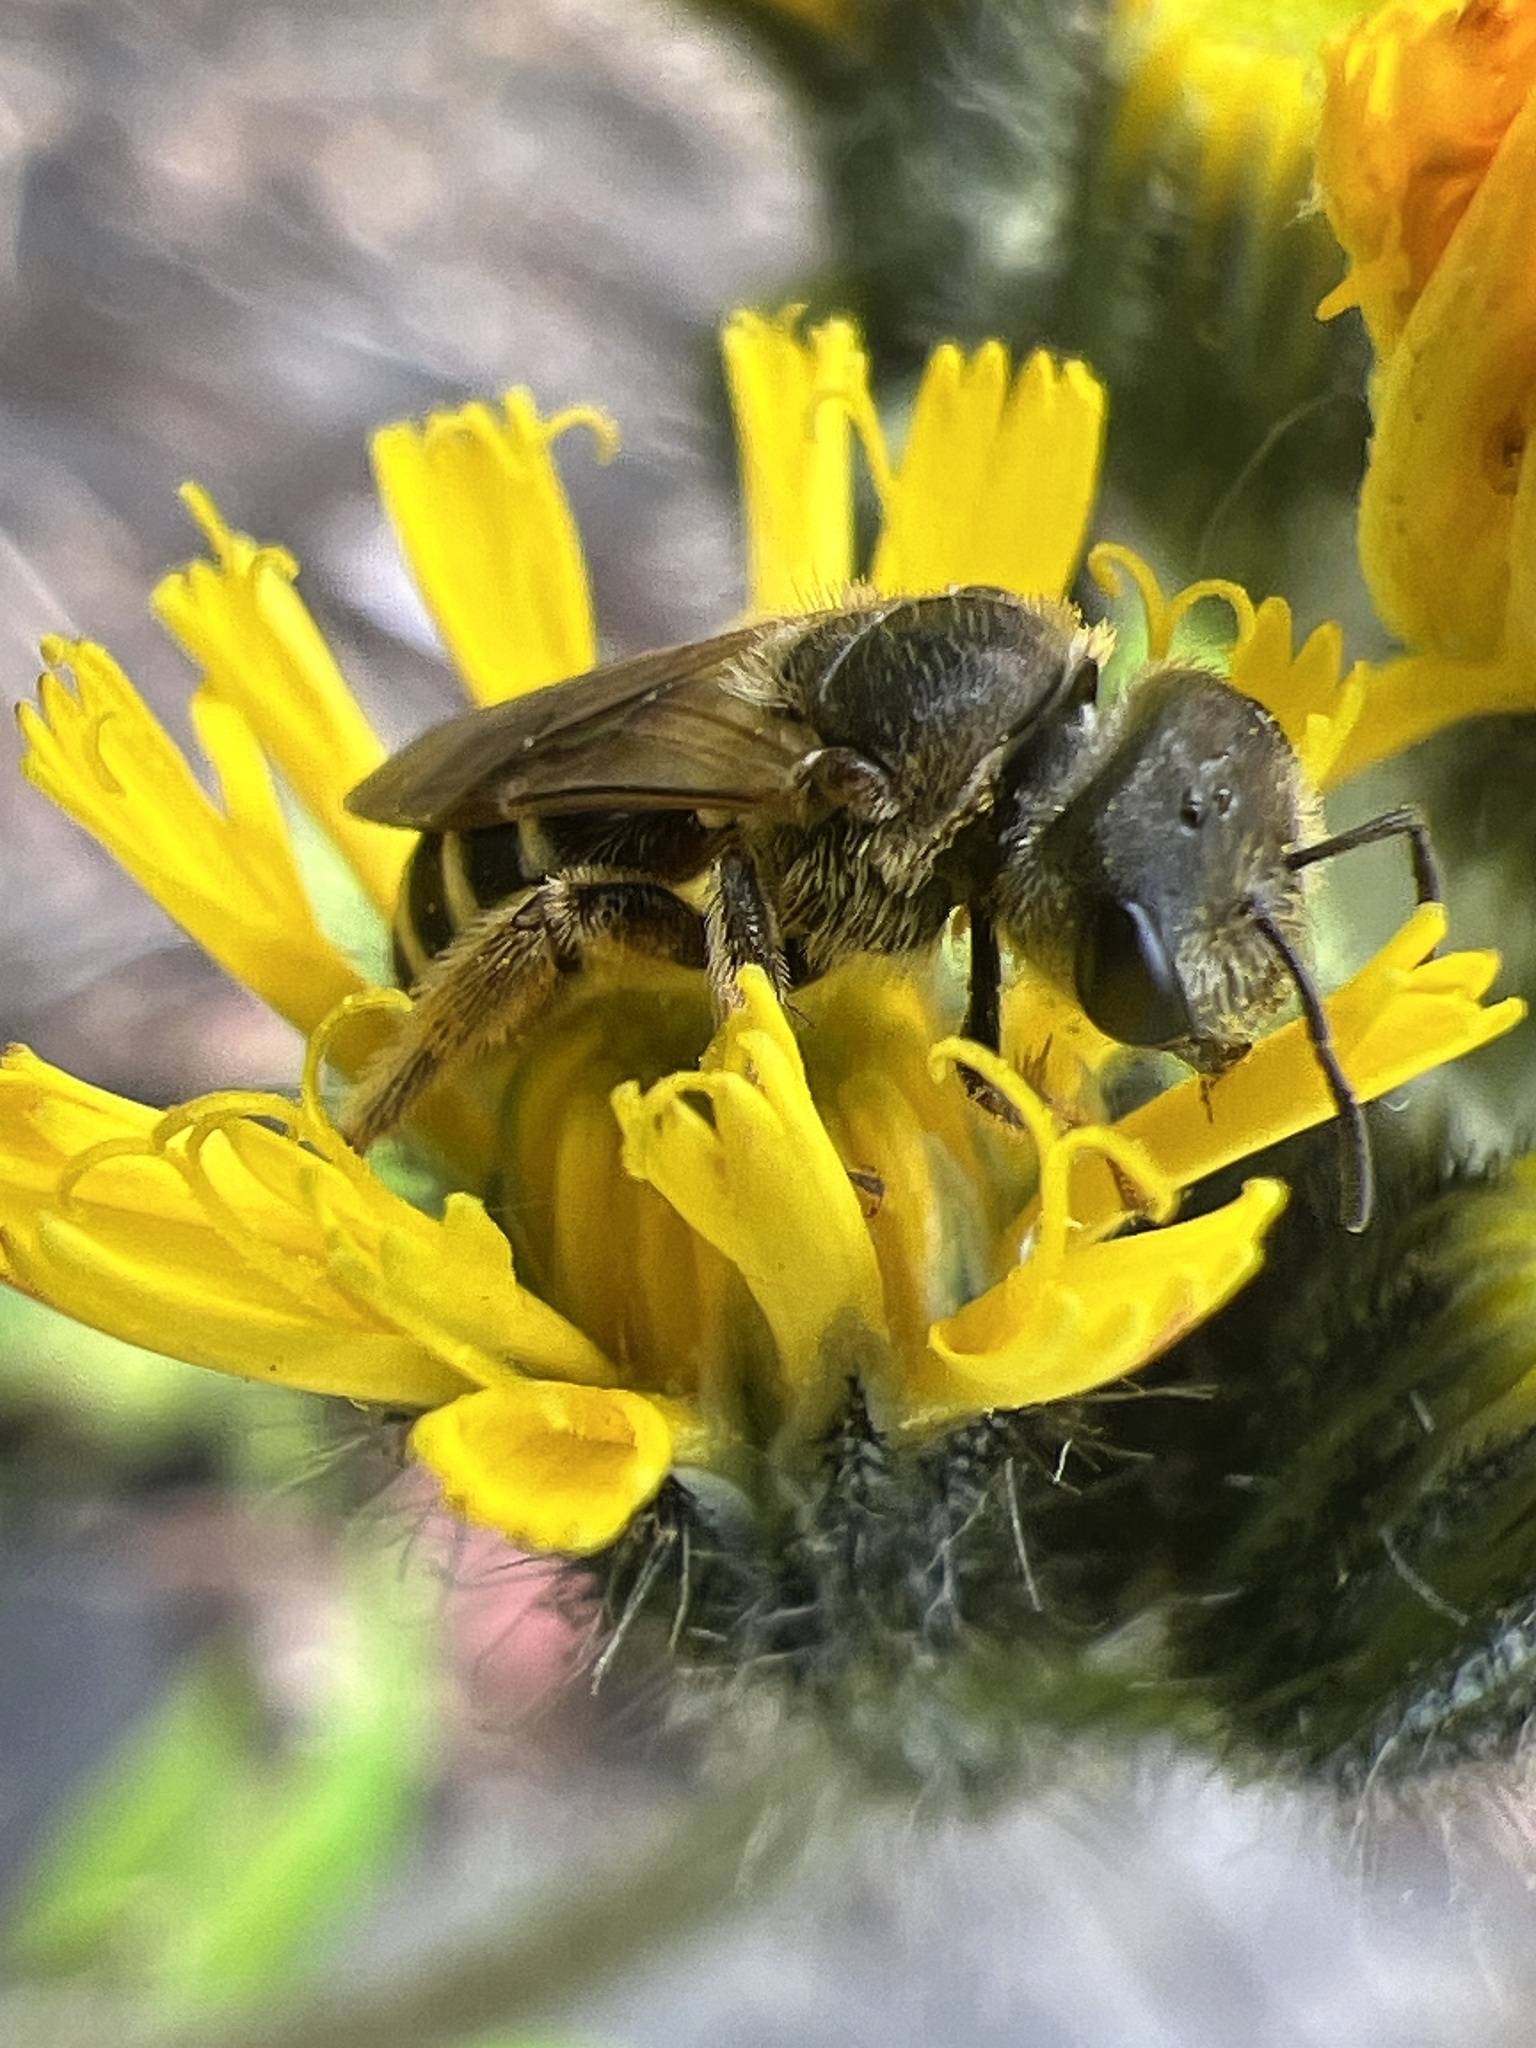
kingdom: Animalia
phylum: Arthropoda
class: Insecta
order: Hymenoptera
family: Halictidae
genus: Halictus
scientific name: Halictus ligatus
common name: Ligated furrow bee
